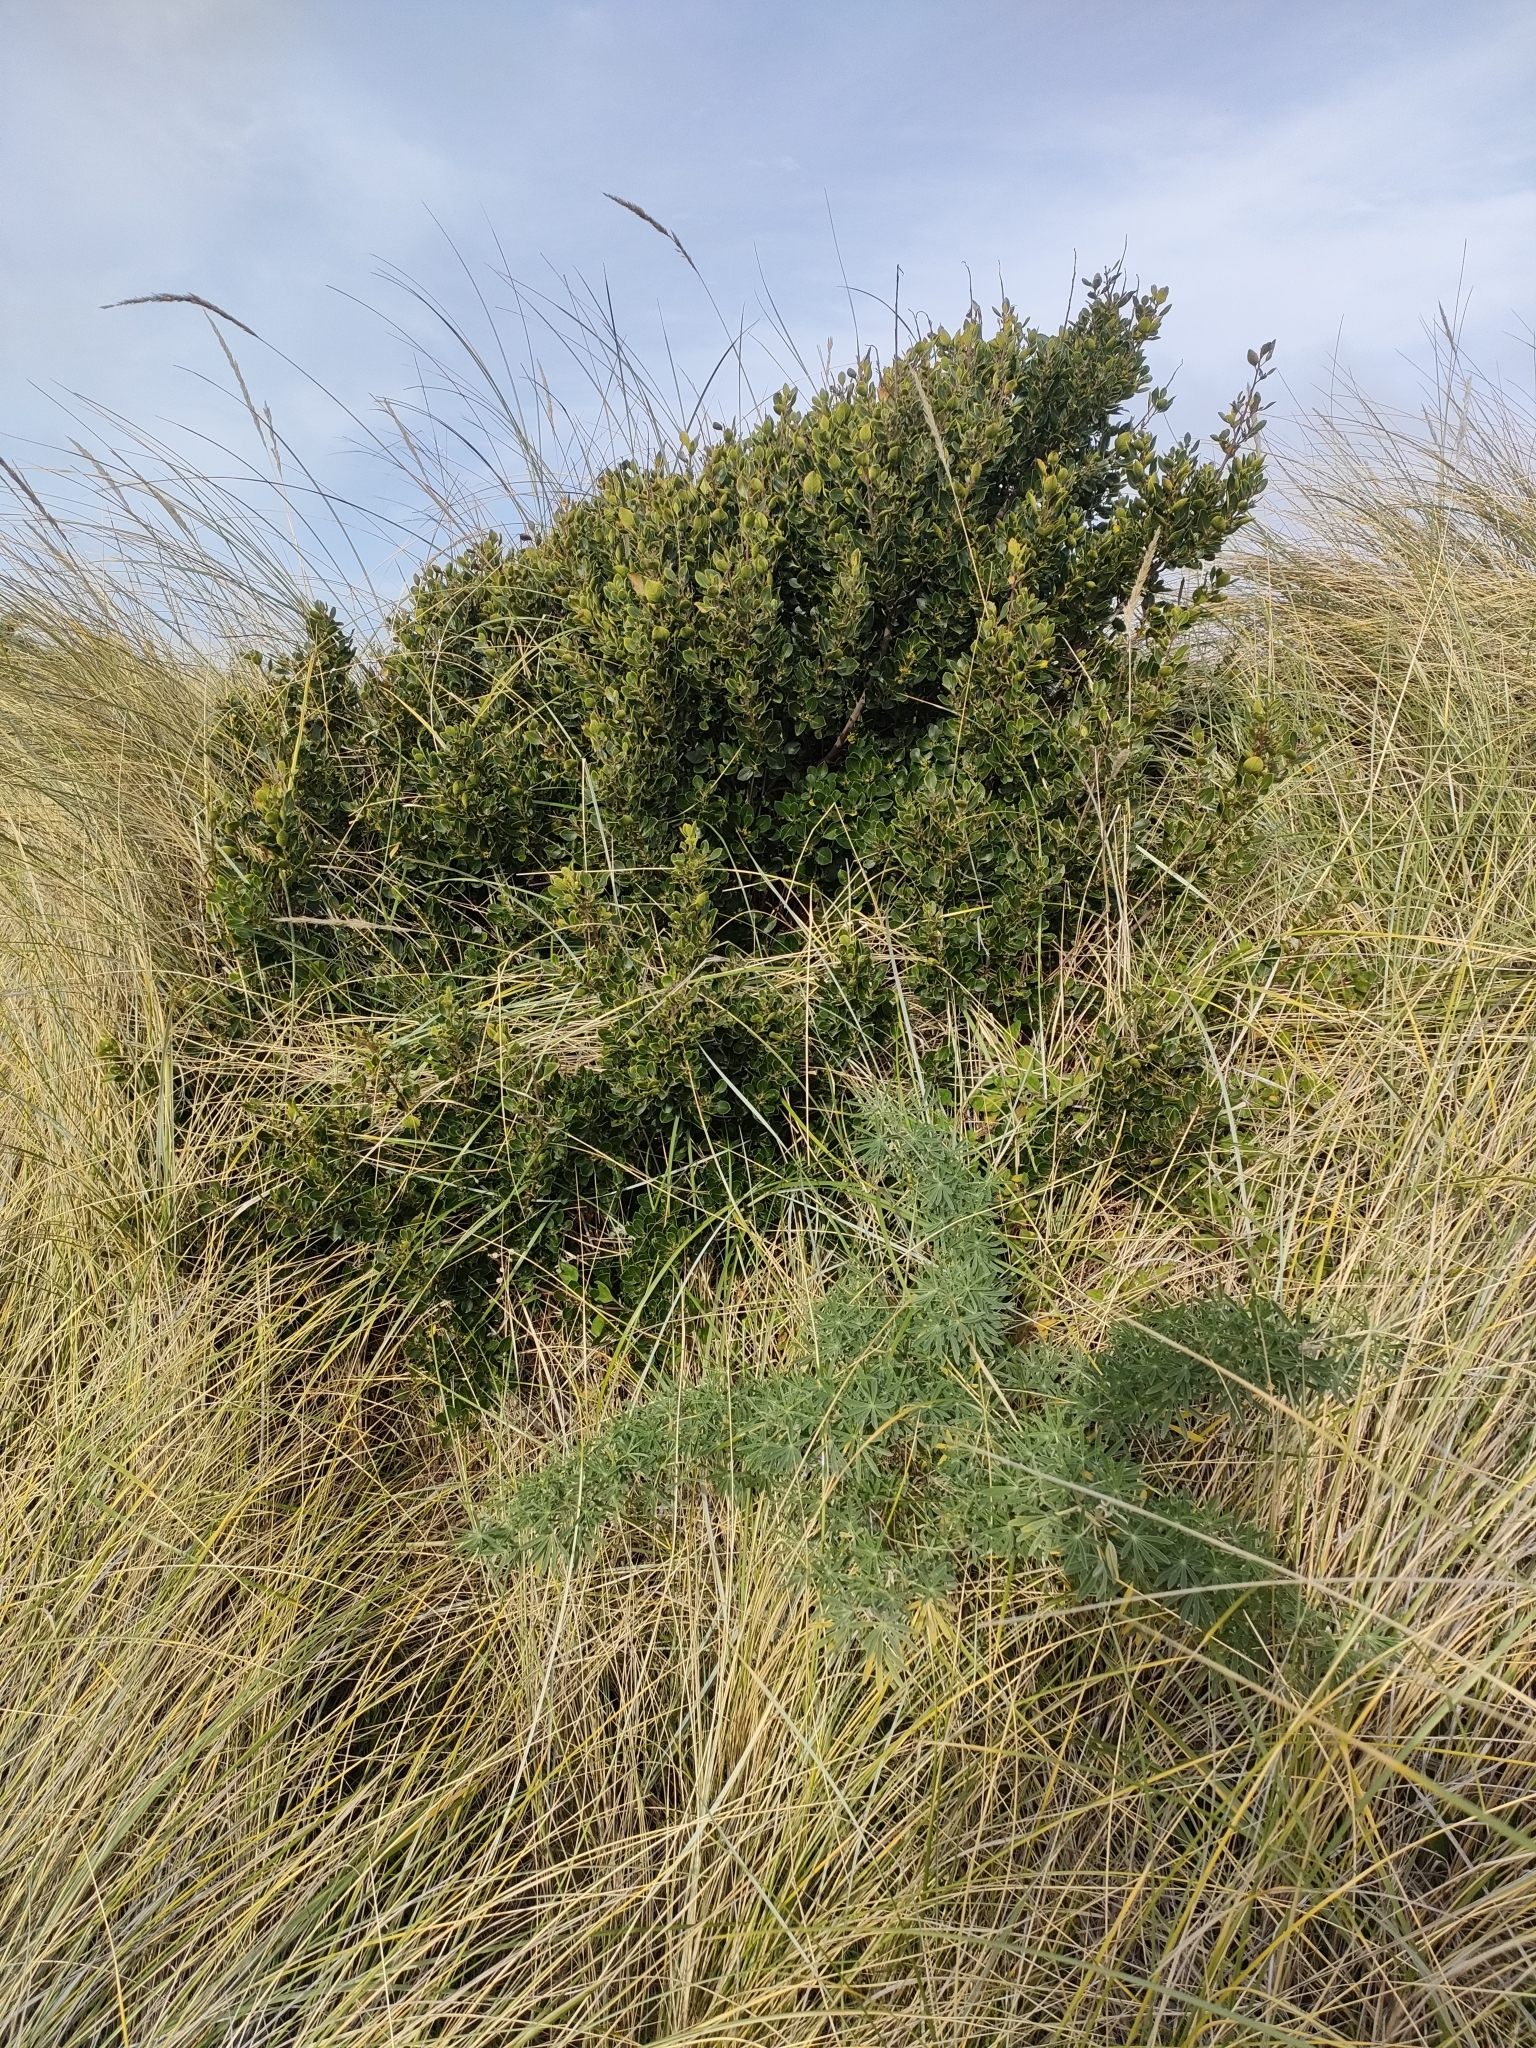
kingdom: Plantae
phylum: Tracheophyta
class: Magnoliopsida
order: Rosales
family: Rhamnaceae
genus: Rhamnus
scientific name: Rhamnus alaternus
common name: Mediterranean buckthorn
